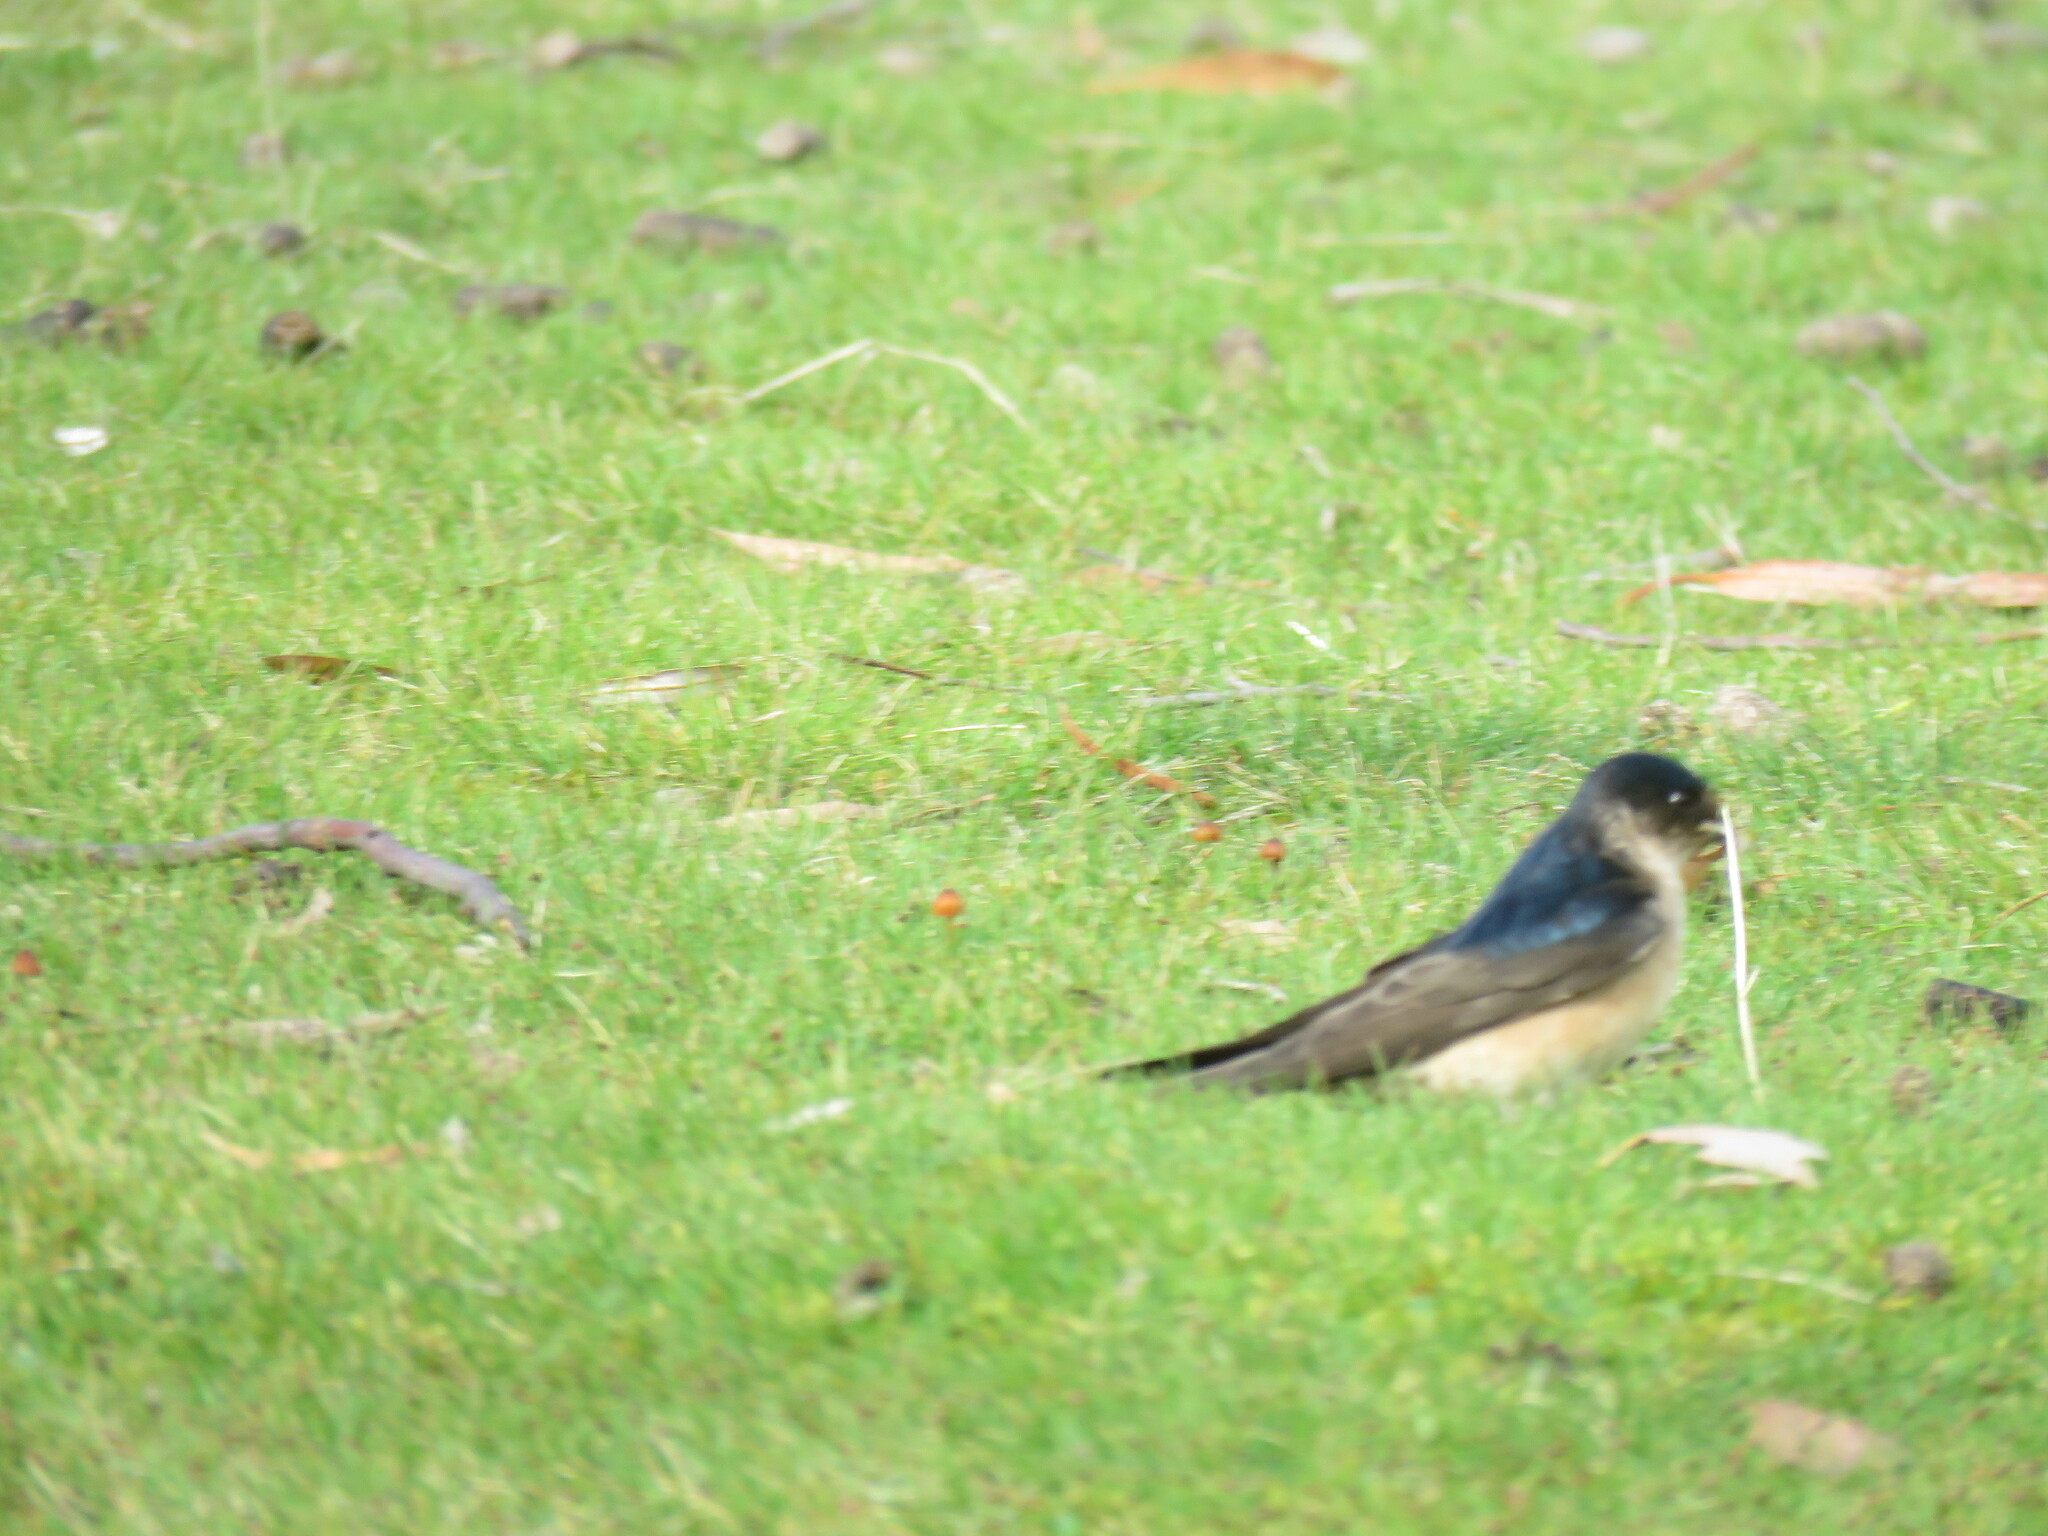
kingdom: Animalia
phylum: Chordata
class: Aves
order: Passeriformes
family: Hirundinidae
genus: Petrochelidon
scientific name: Petrochelidon nigricans
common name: Tree martin
